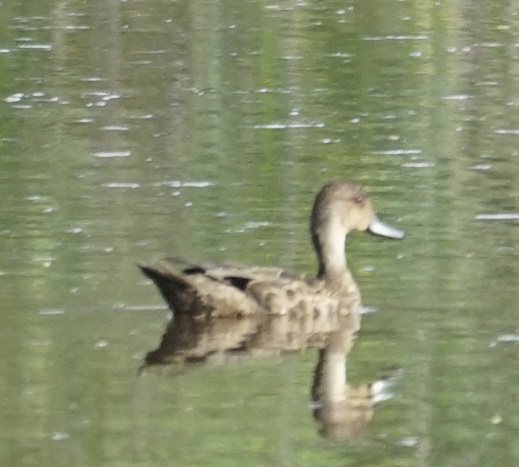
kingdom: Animalia
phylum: Chordata
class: Aves
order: Anseriformes
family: Anatidae
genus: Anas
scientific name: Anas gracilis
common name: Grey teal
